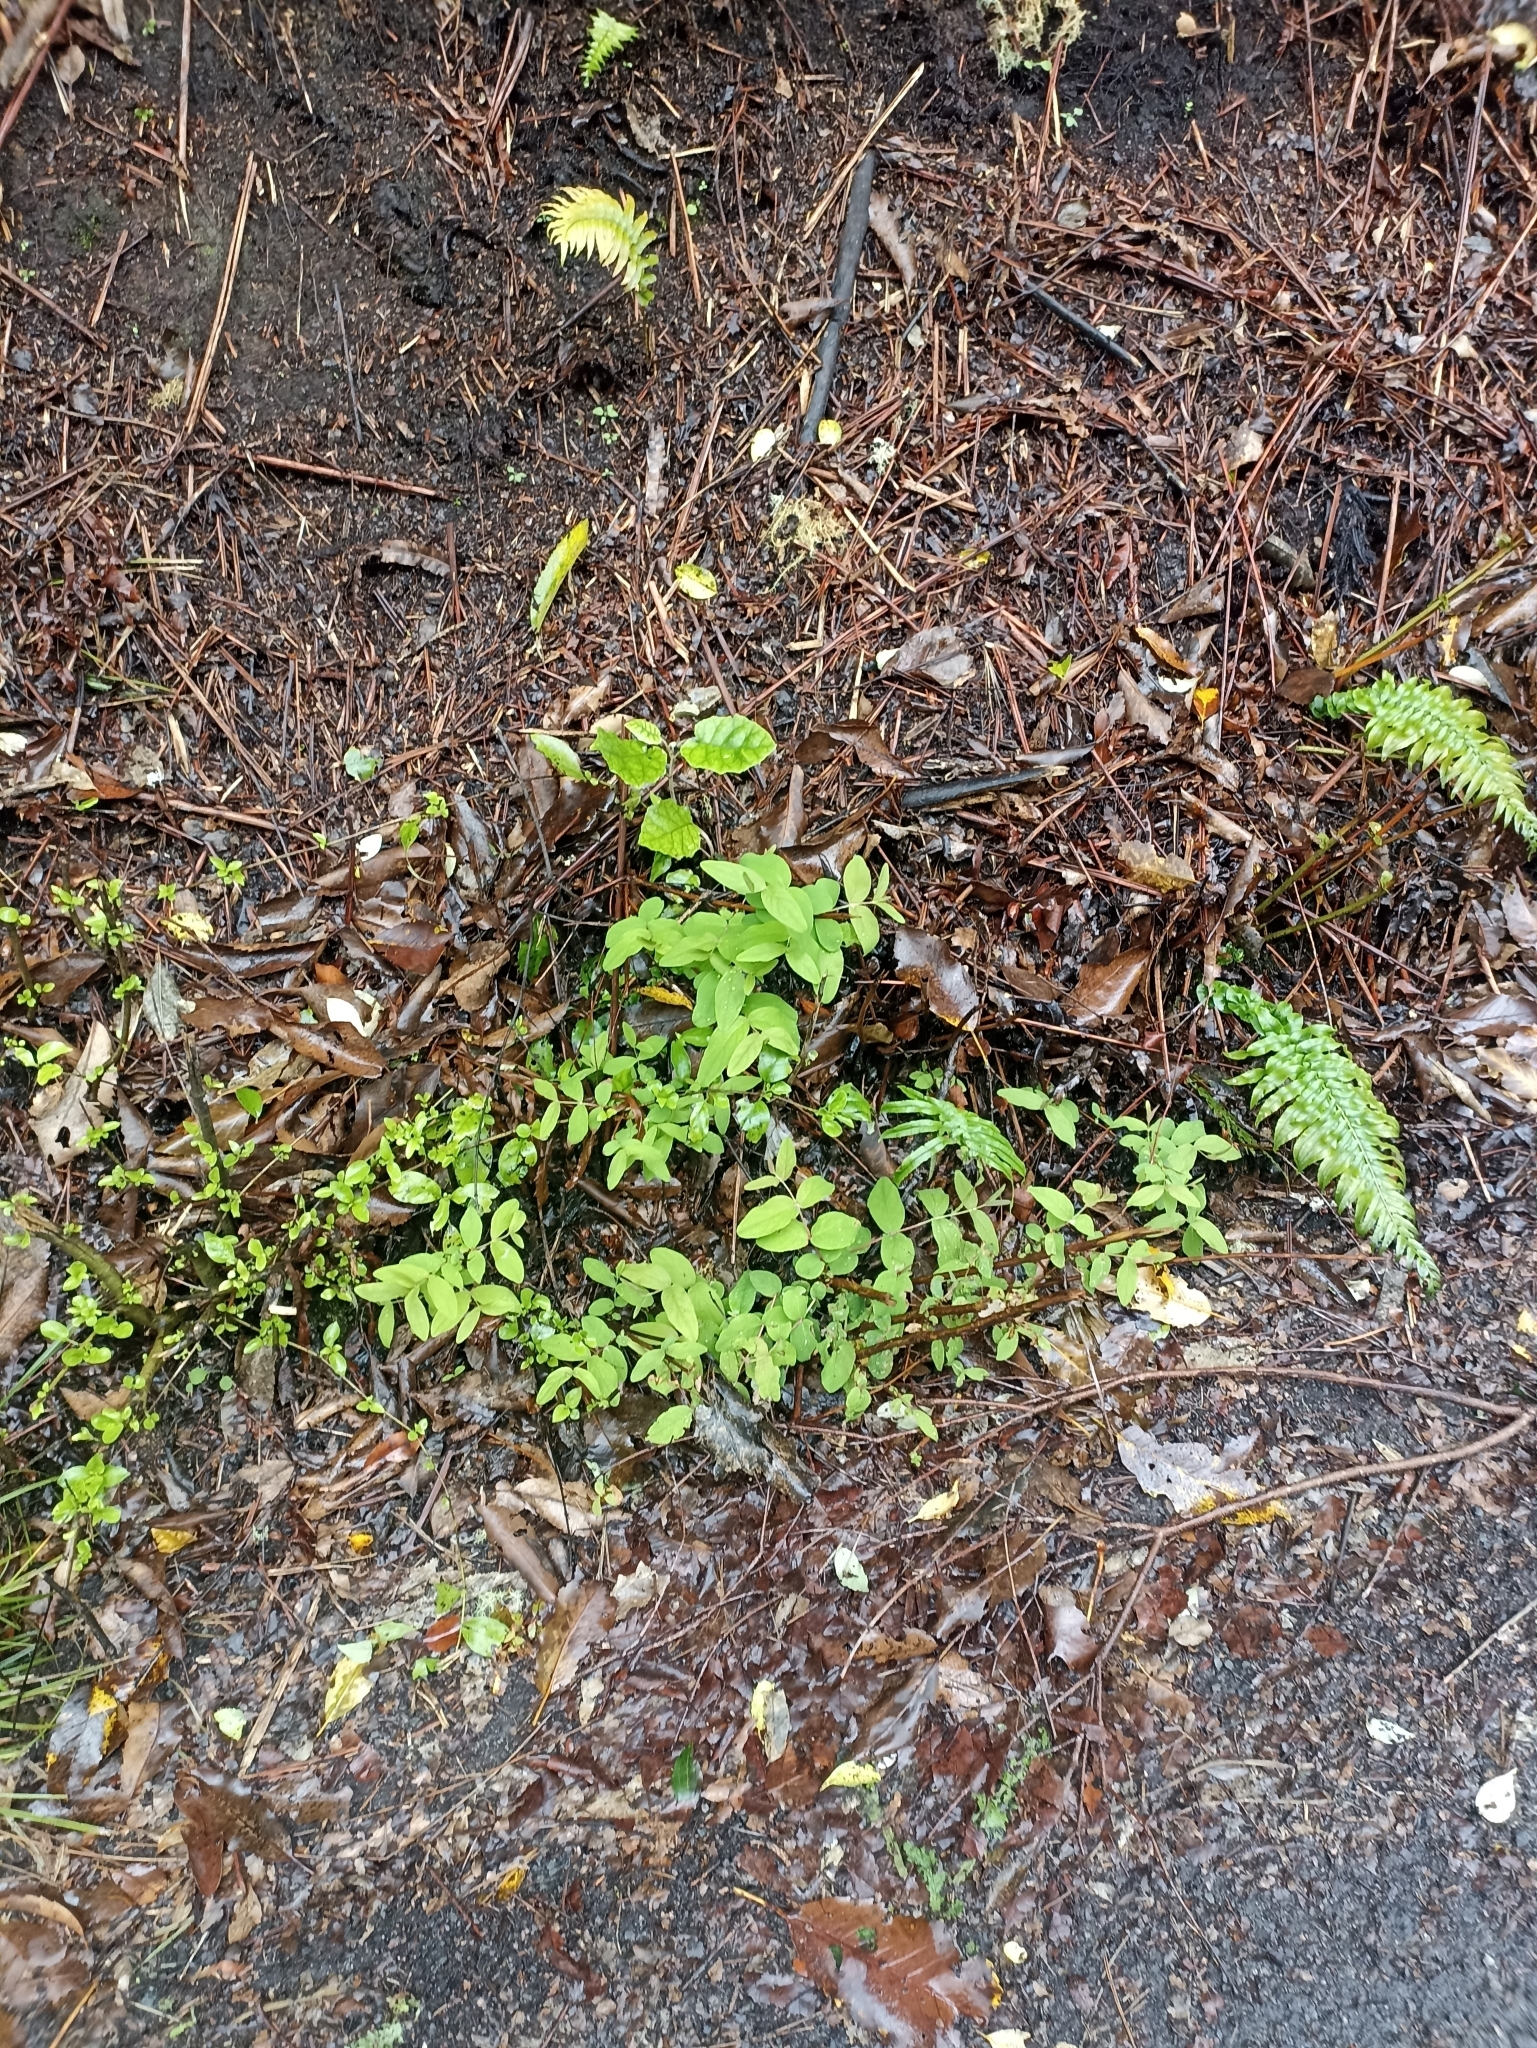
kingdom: Plantae
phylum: Tracheophyta
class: Magnoliopsida
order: Malpighiales
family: Hypericaceae
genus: Hypericum
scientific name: Hypericum androsaemum
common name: Sweet-amber
